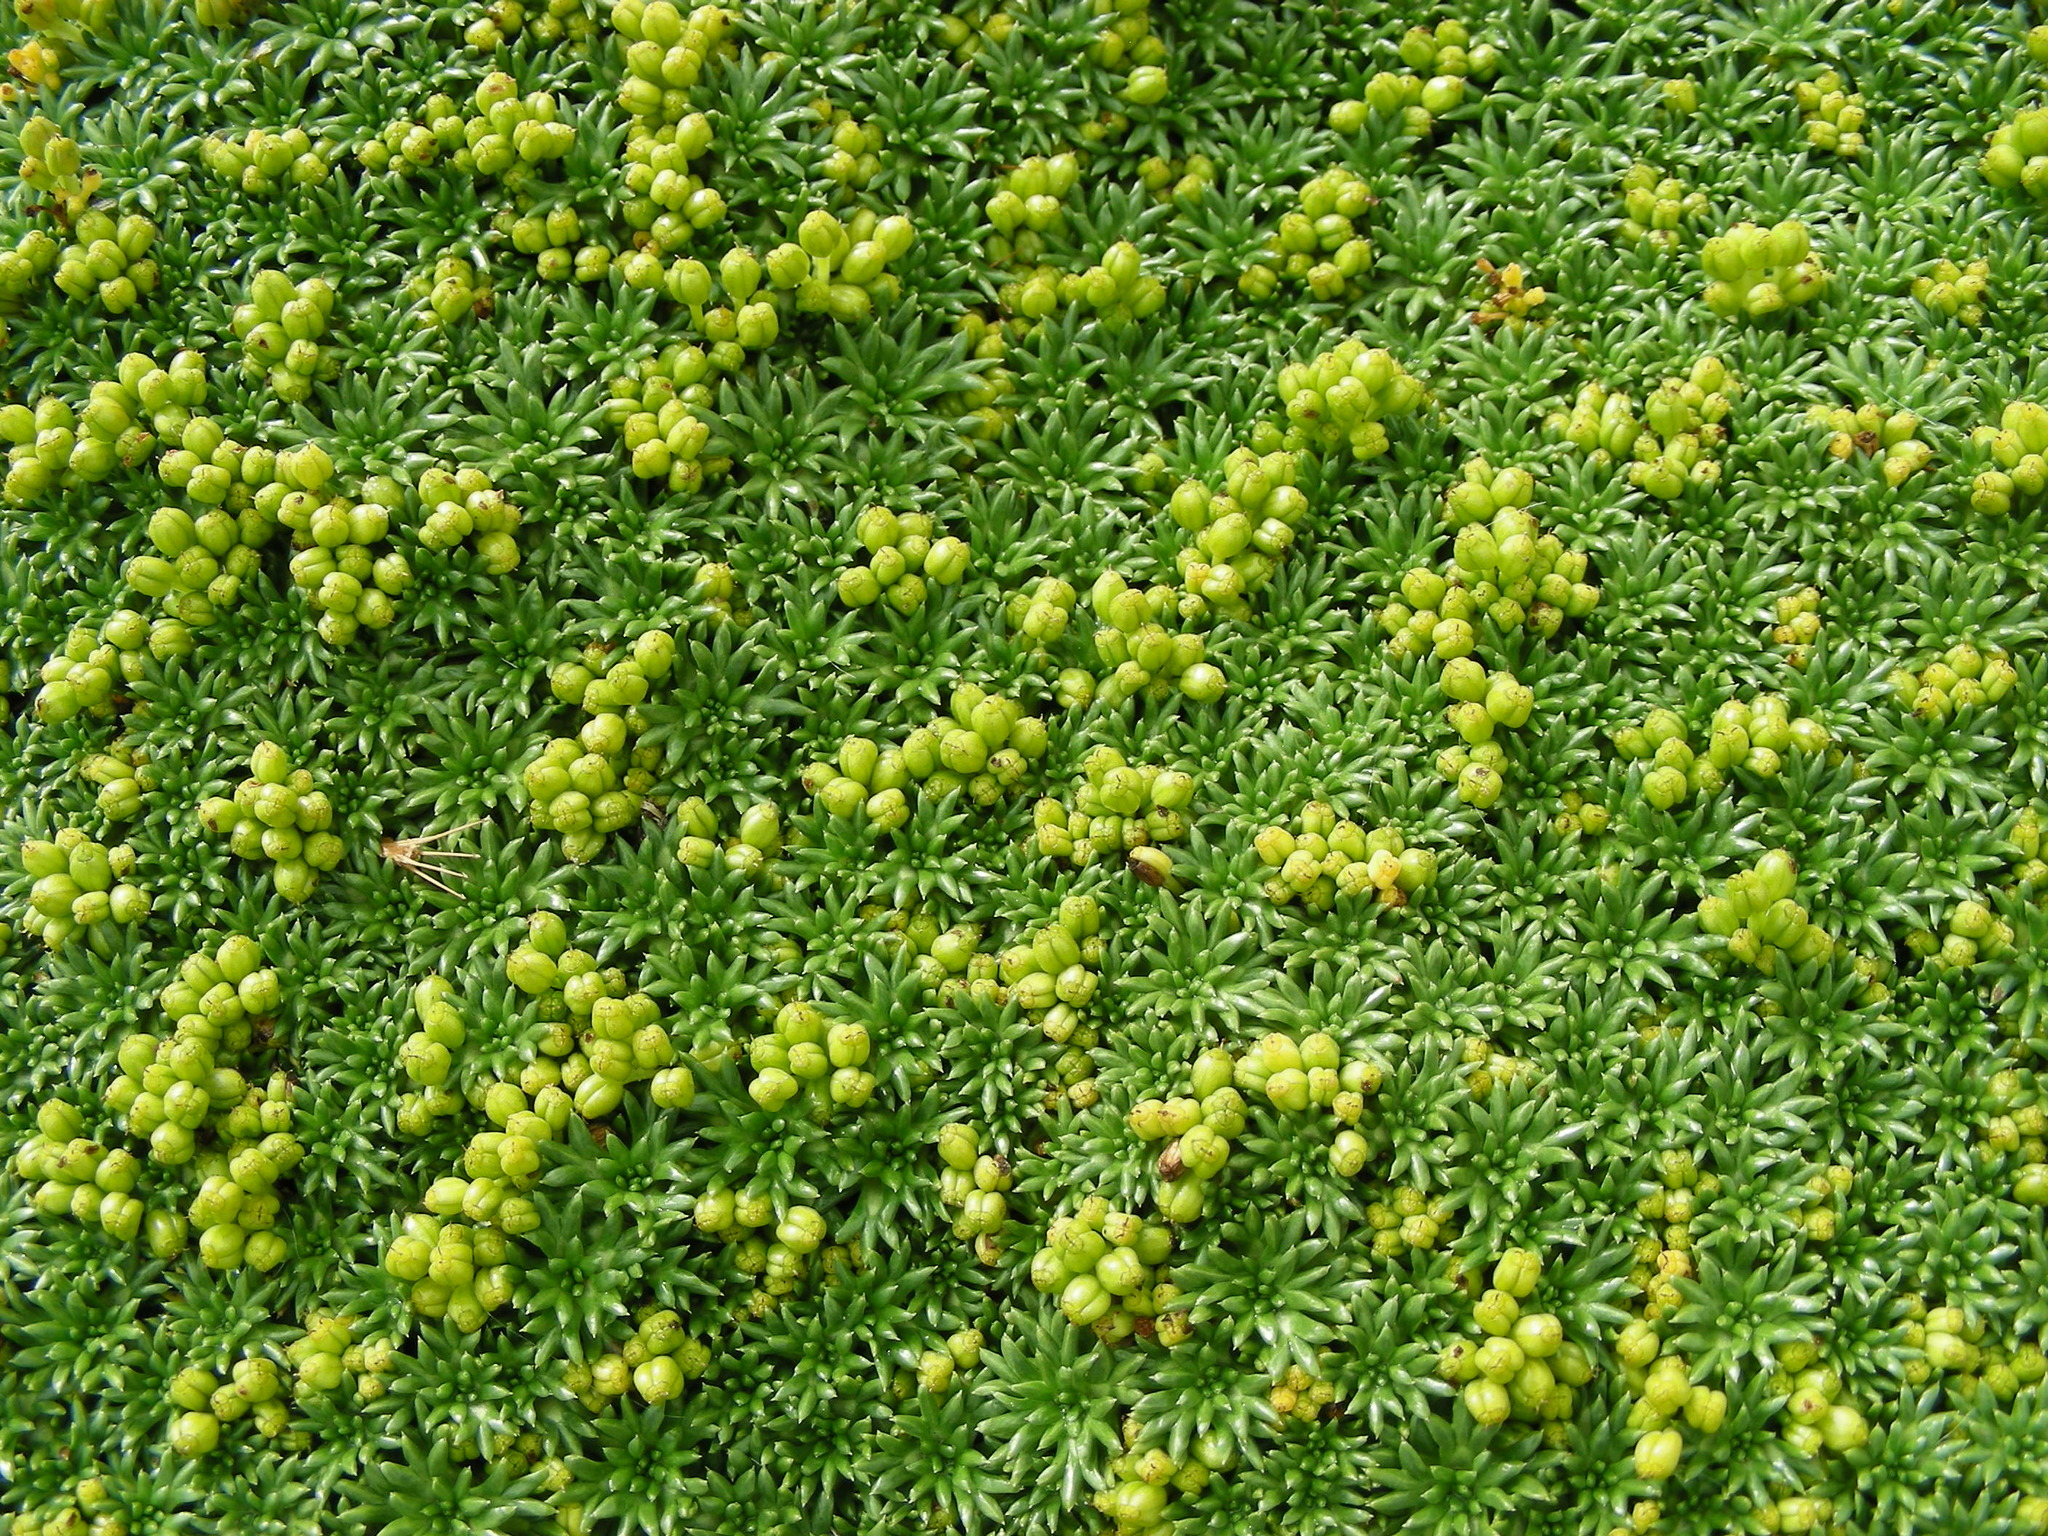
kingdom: Plantae
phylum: Tracheophyta
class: Magnoliopsida
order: Apiales
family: Apiaceae
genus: Azorella
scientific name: Azorella trifurcata
